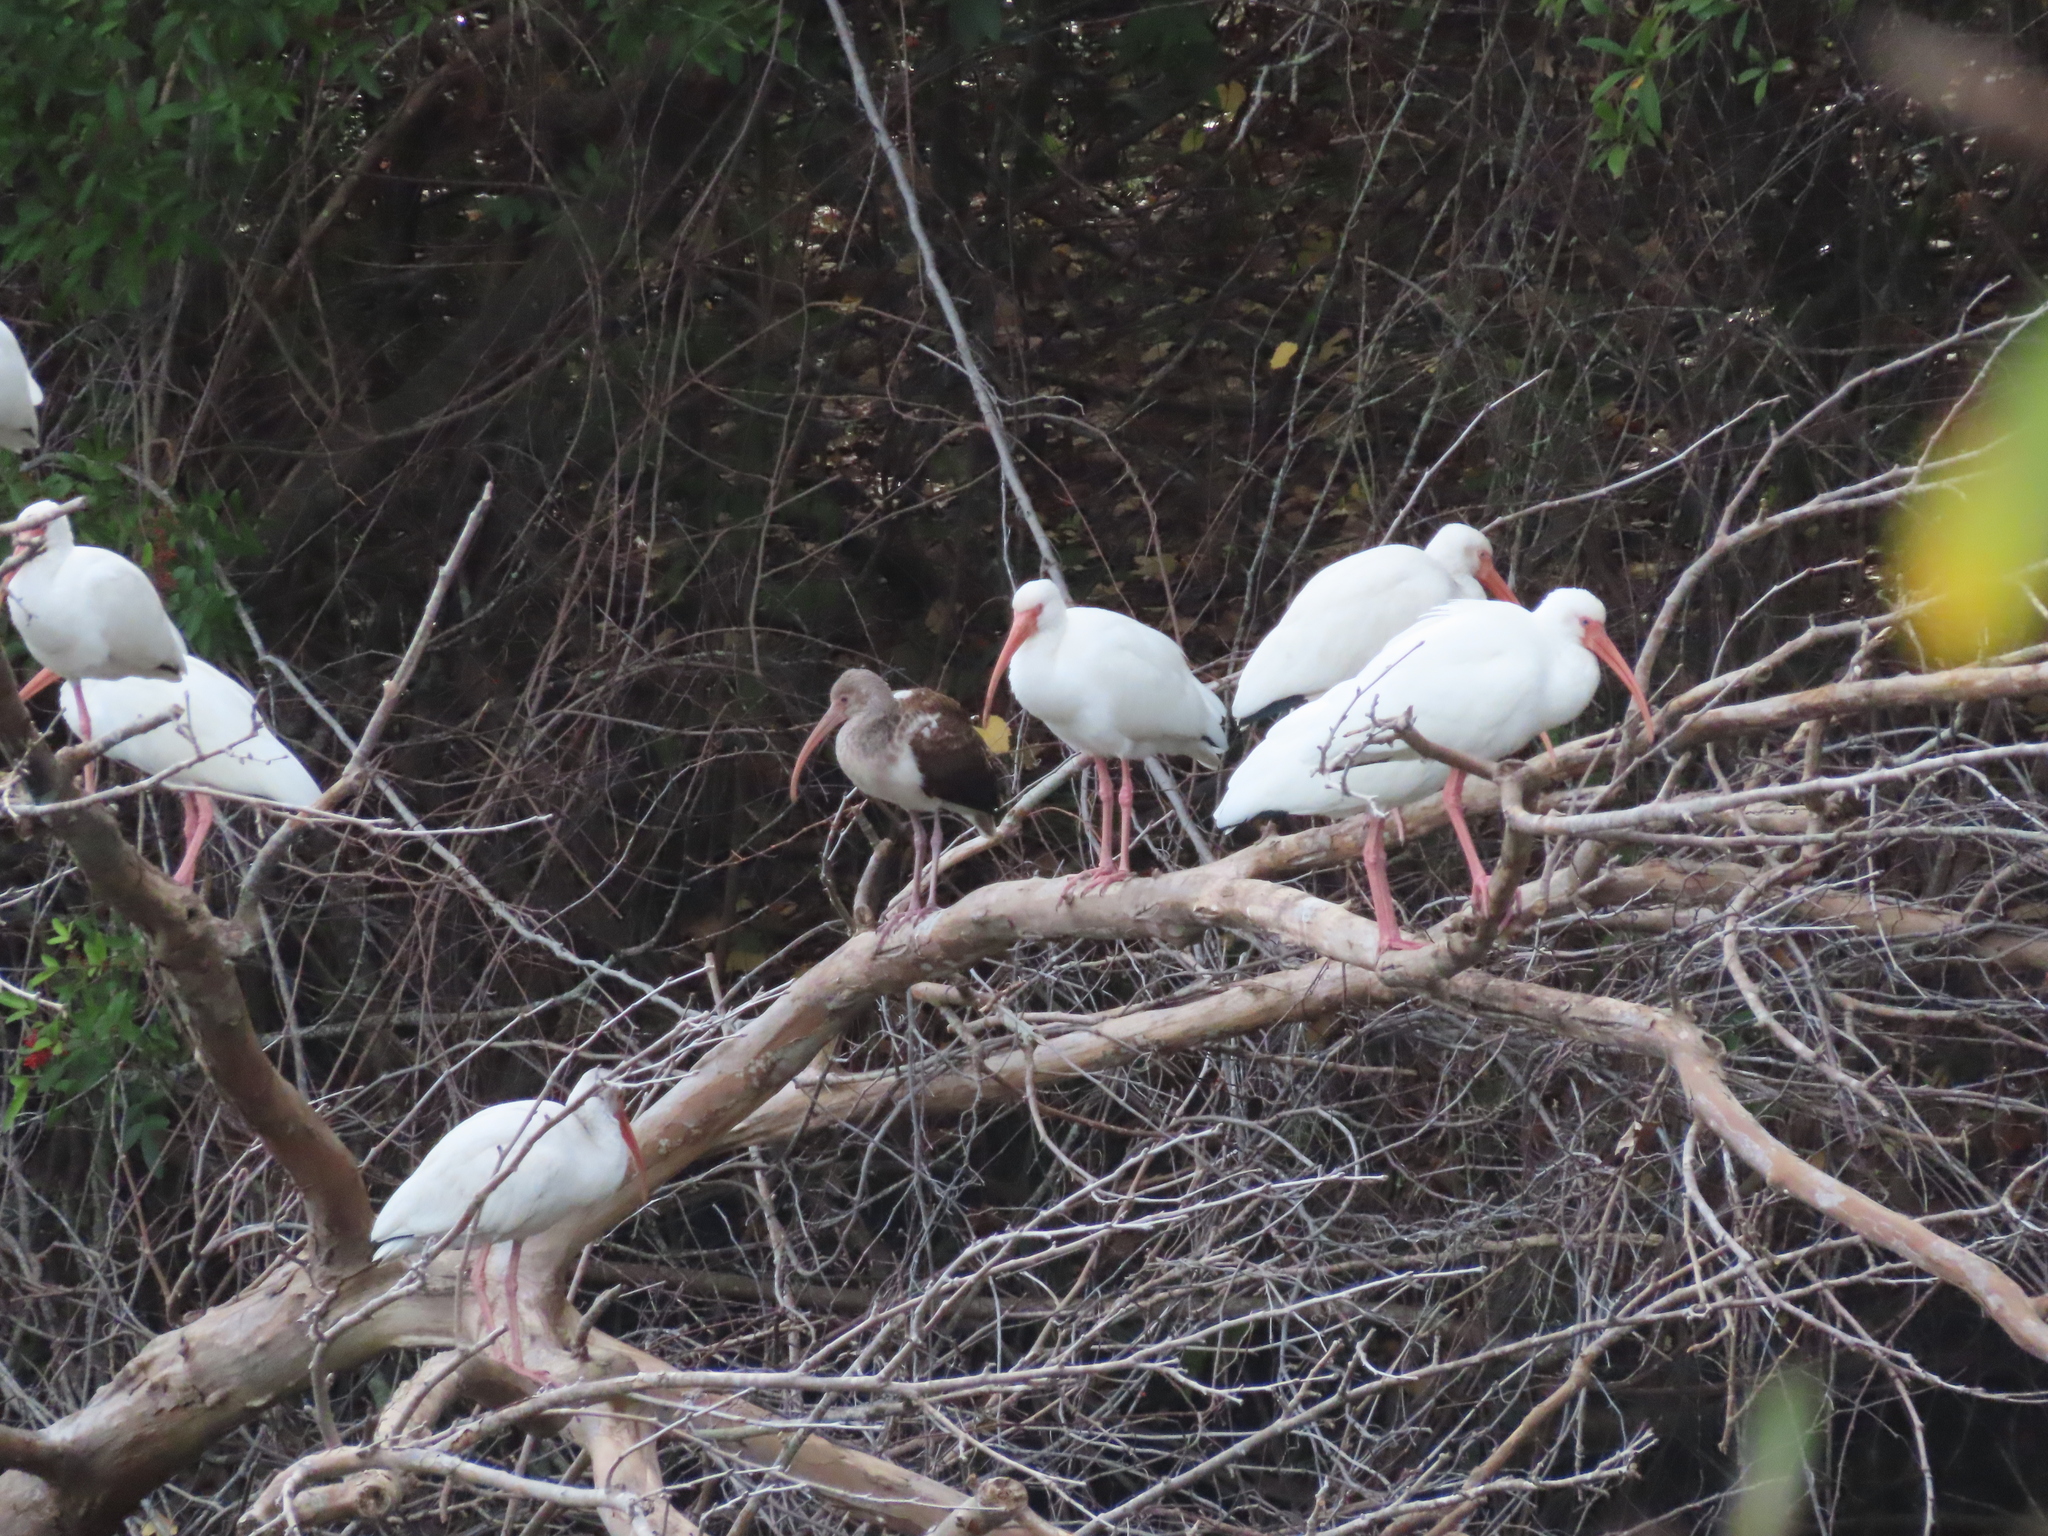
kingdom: Animalia
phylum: Chordata
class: Aves
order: Pelecaniformes
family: Threskiornithidae
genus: Eudocimus
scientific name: Eudocimus albus
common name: White ibis
